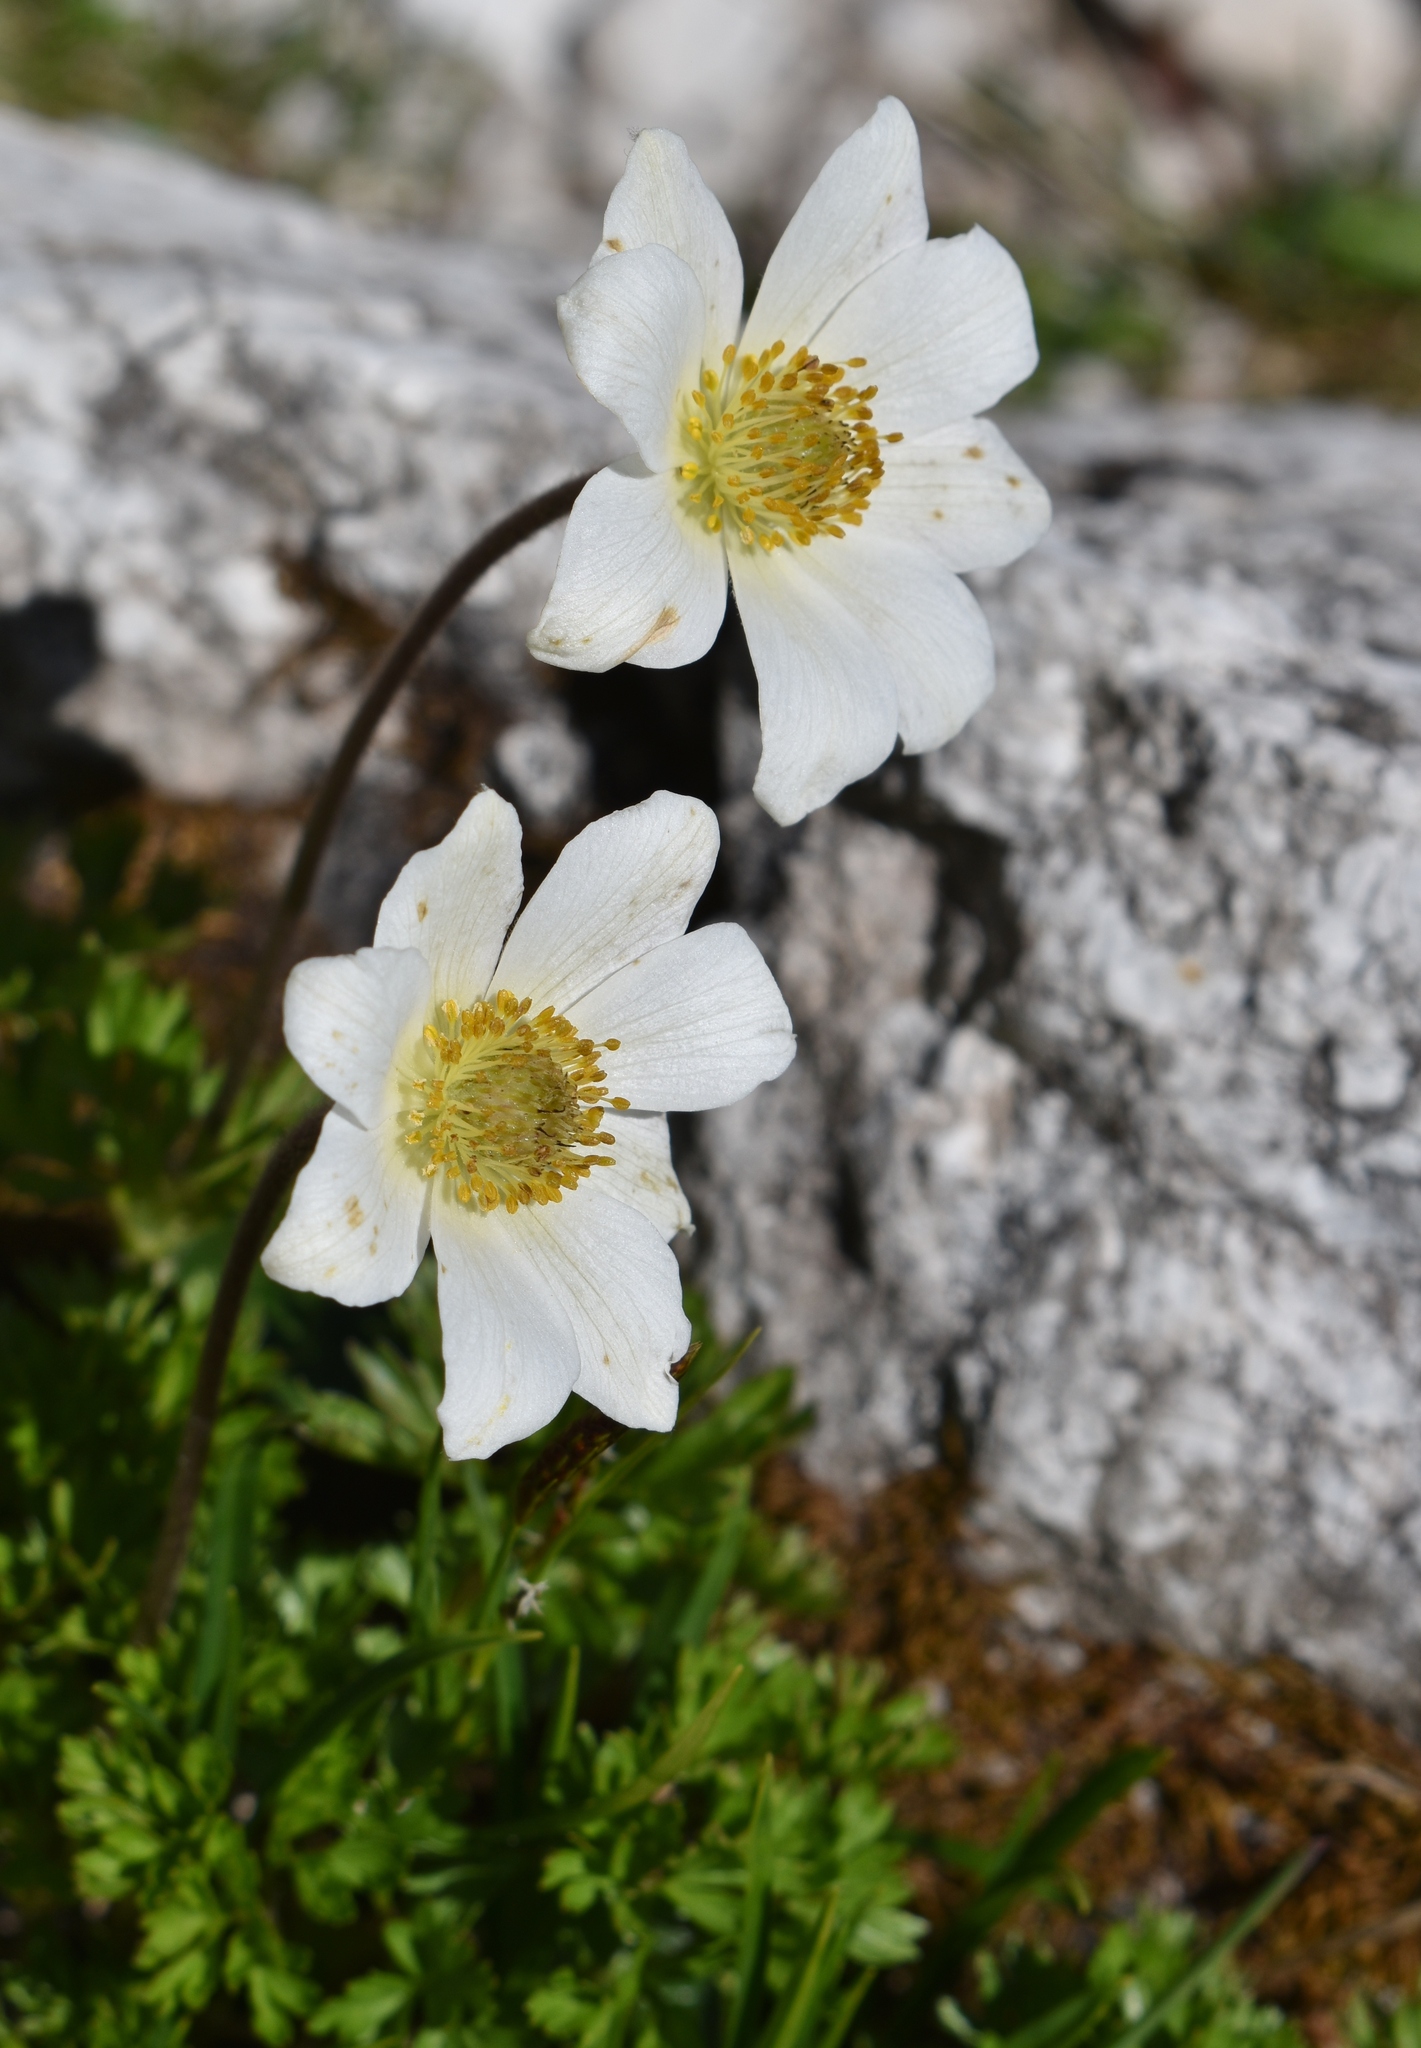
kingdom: Plantae
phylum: Tracheophyta
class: Magnoliopsida
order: Ranunculales
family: Ranunculaceae
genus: Anemonastrum
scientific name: Anemonastrum narcissiflorum
